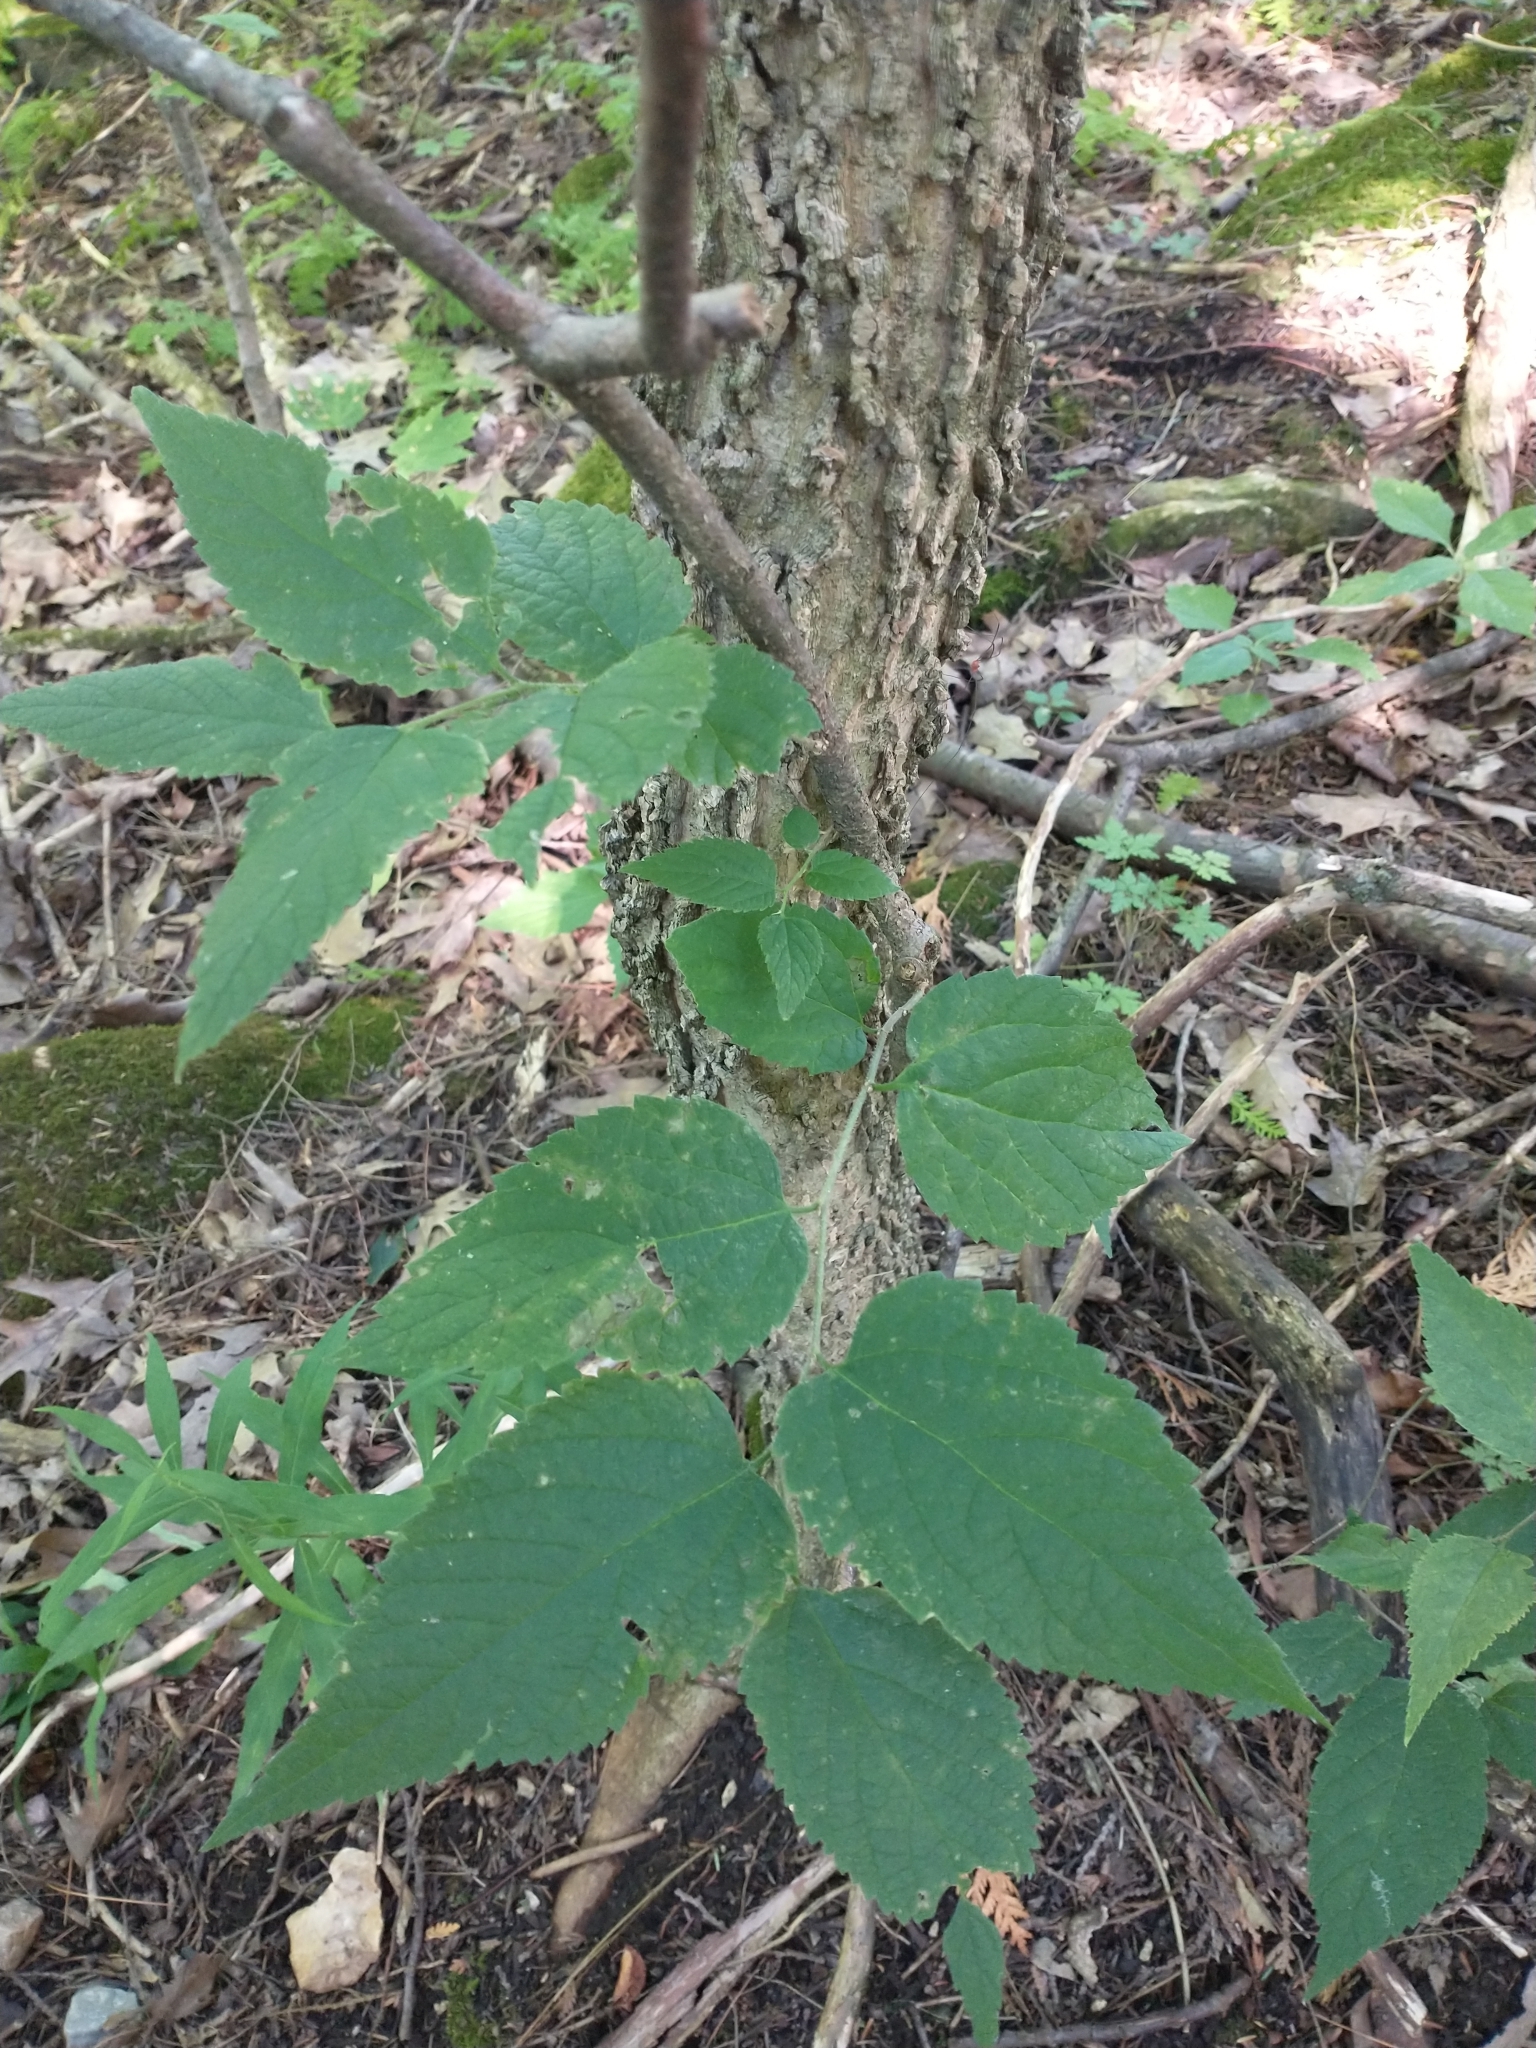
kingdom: Plantae
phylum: Tracheophyta
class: Magnoliopsida
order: Rosales
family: Cannabaceae
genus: Celtis
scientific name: Celtis occidentalis
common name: Common hackberry
